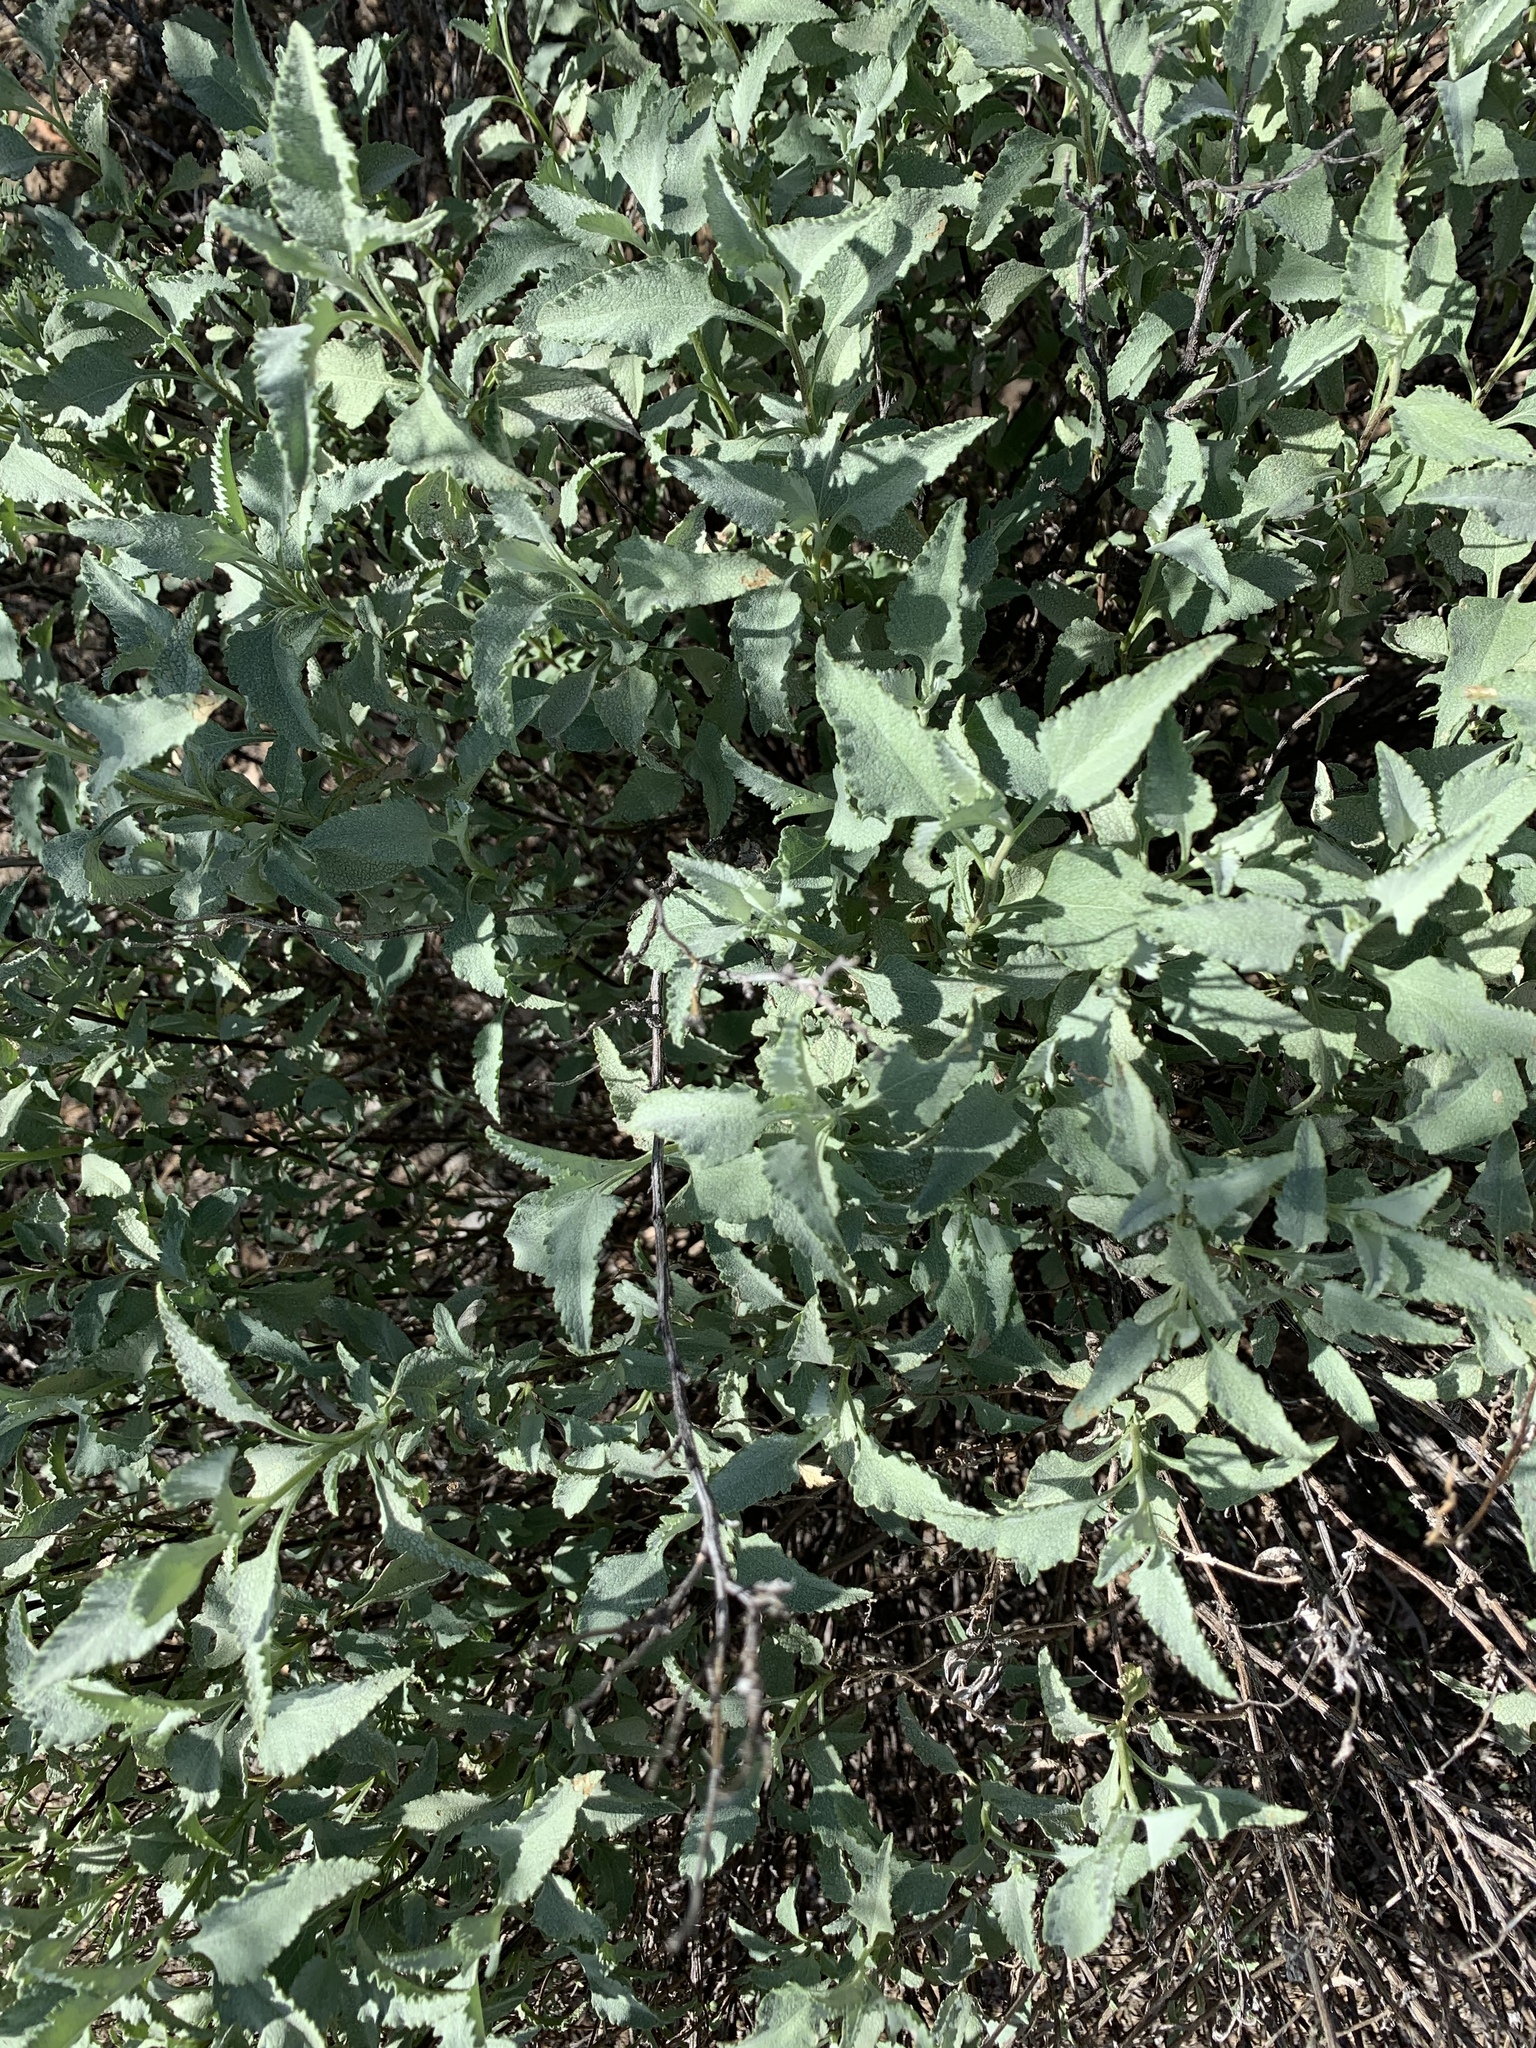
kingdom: Plantae
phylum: Tracheophyta
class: Magnoliopsida
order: Asterales
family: Asteraceae
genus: Ambrosia
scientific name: Ambrosia deltoidea
